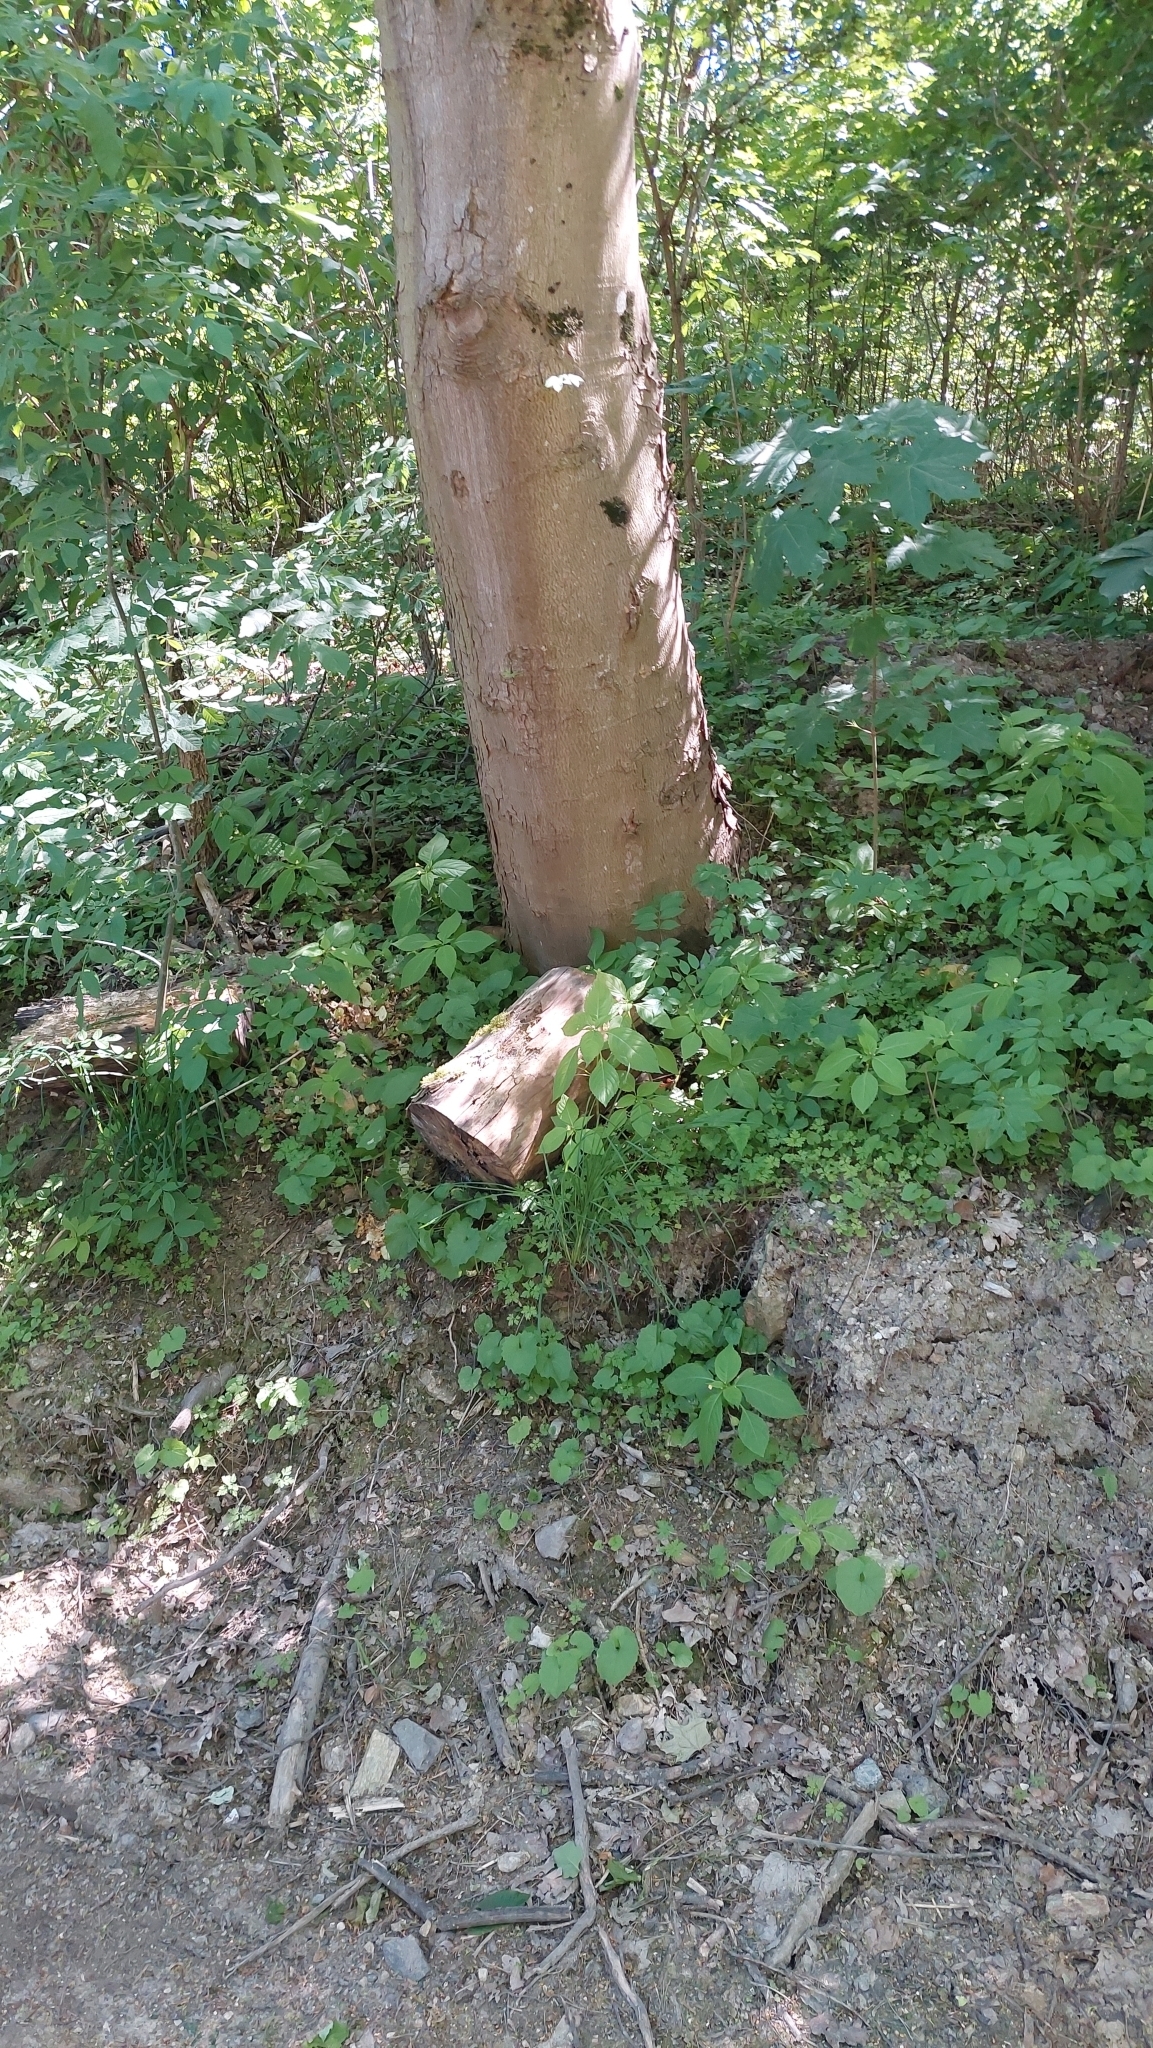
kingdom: Animalia
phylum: Arthropoda
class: Diplopoda
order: Julida
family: Julidae
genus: Ommatoiulus
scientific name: Ommatoiulus sabulosus
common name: Striped millipede
